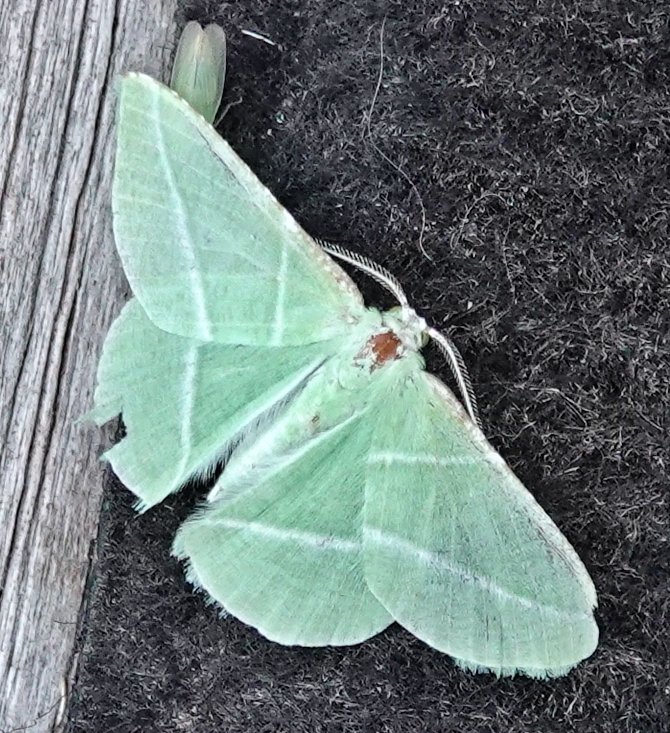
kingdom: Animalia
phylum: Arthropoda
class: Insecta
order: Lepidoptera
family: Geometridae
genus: Dichorda
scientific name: Dichorda rectaria
